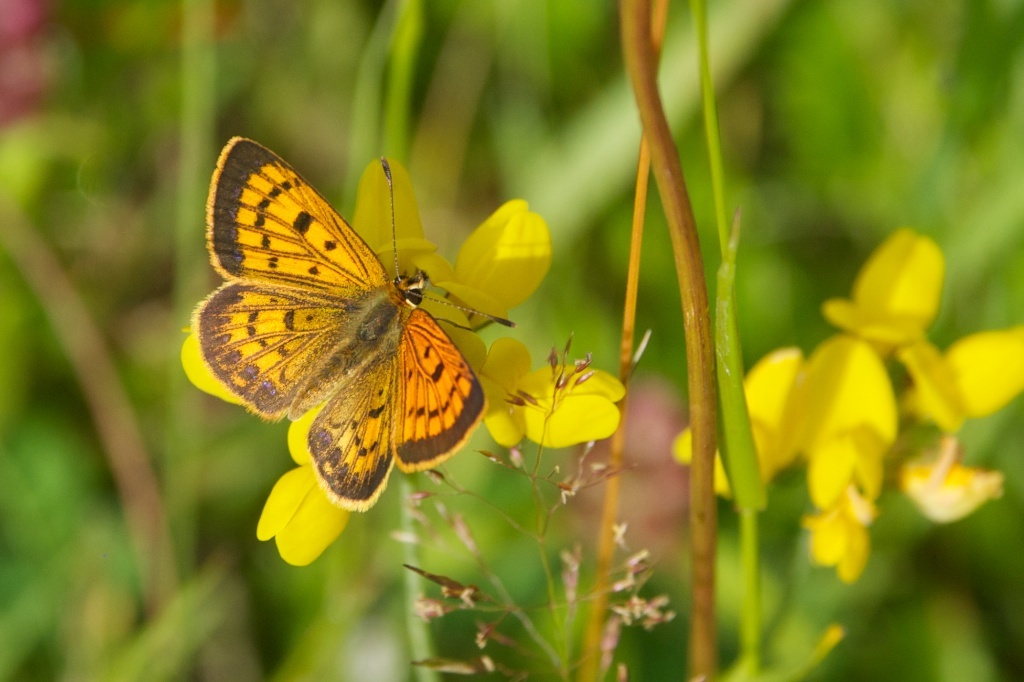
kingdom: Animalia
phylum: Arthropoda
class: Insecta
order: Lepidoptera
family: Lycaenidae
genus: Lycaena
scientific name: Lycaena
